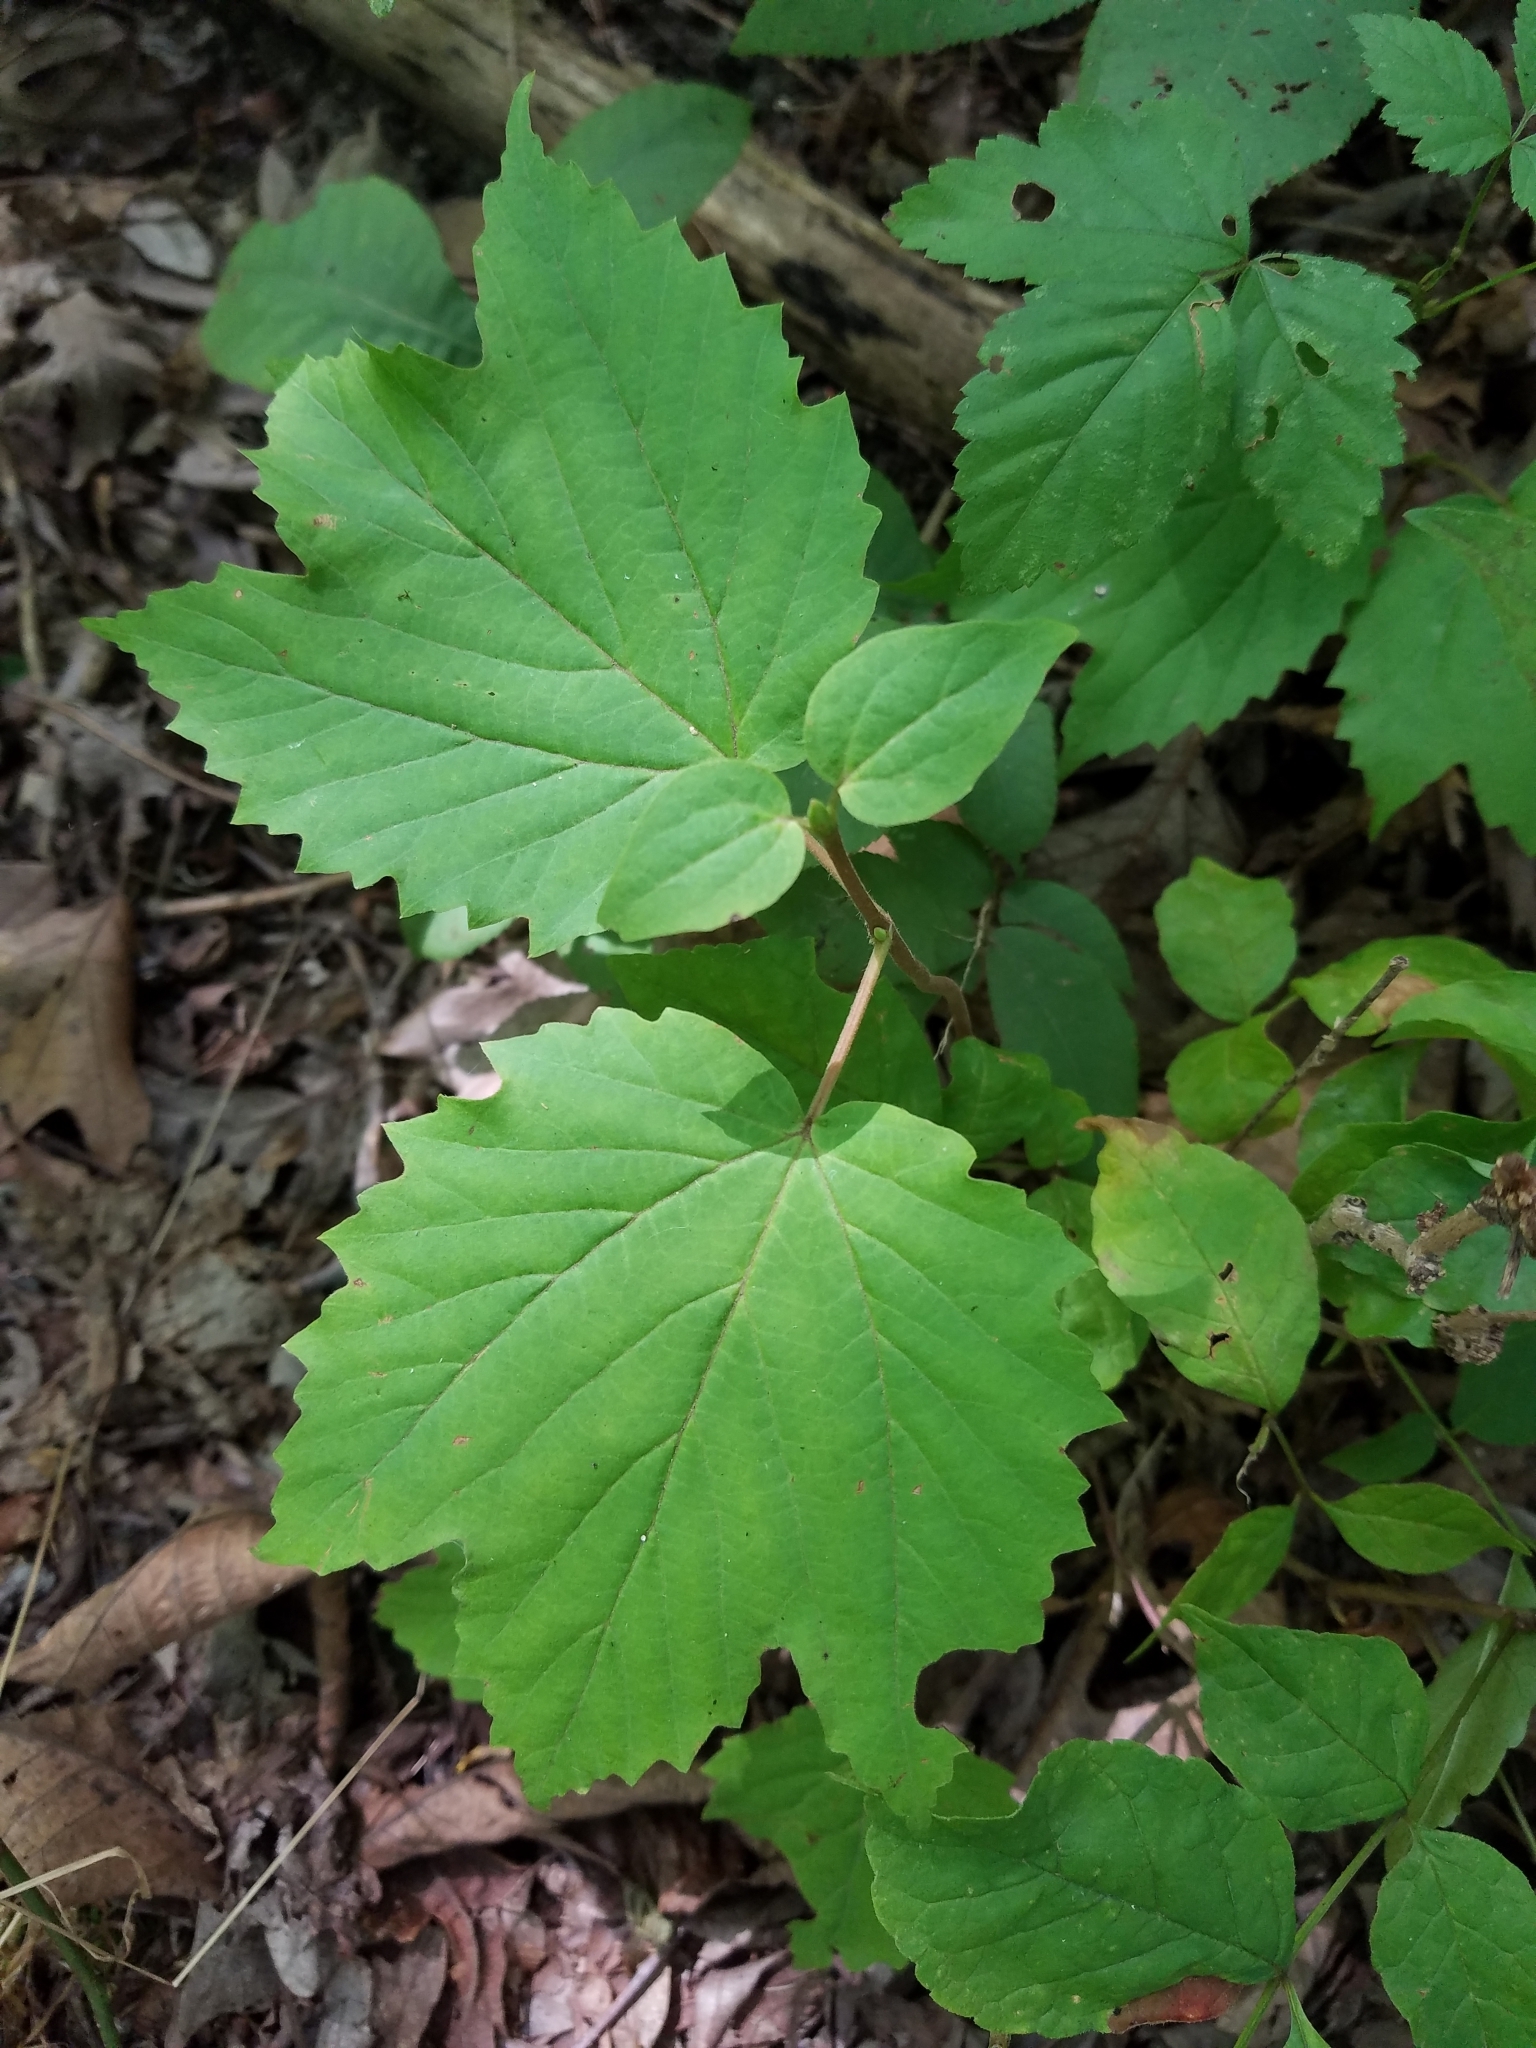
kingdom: Plantae
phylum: Tracheophyta
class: Magnoliopsida
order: Dipsacales
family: Viburnaceae
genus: Viburnum
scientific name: Viburnum acerifolium
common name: Dockmackie
